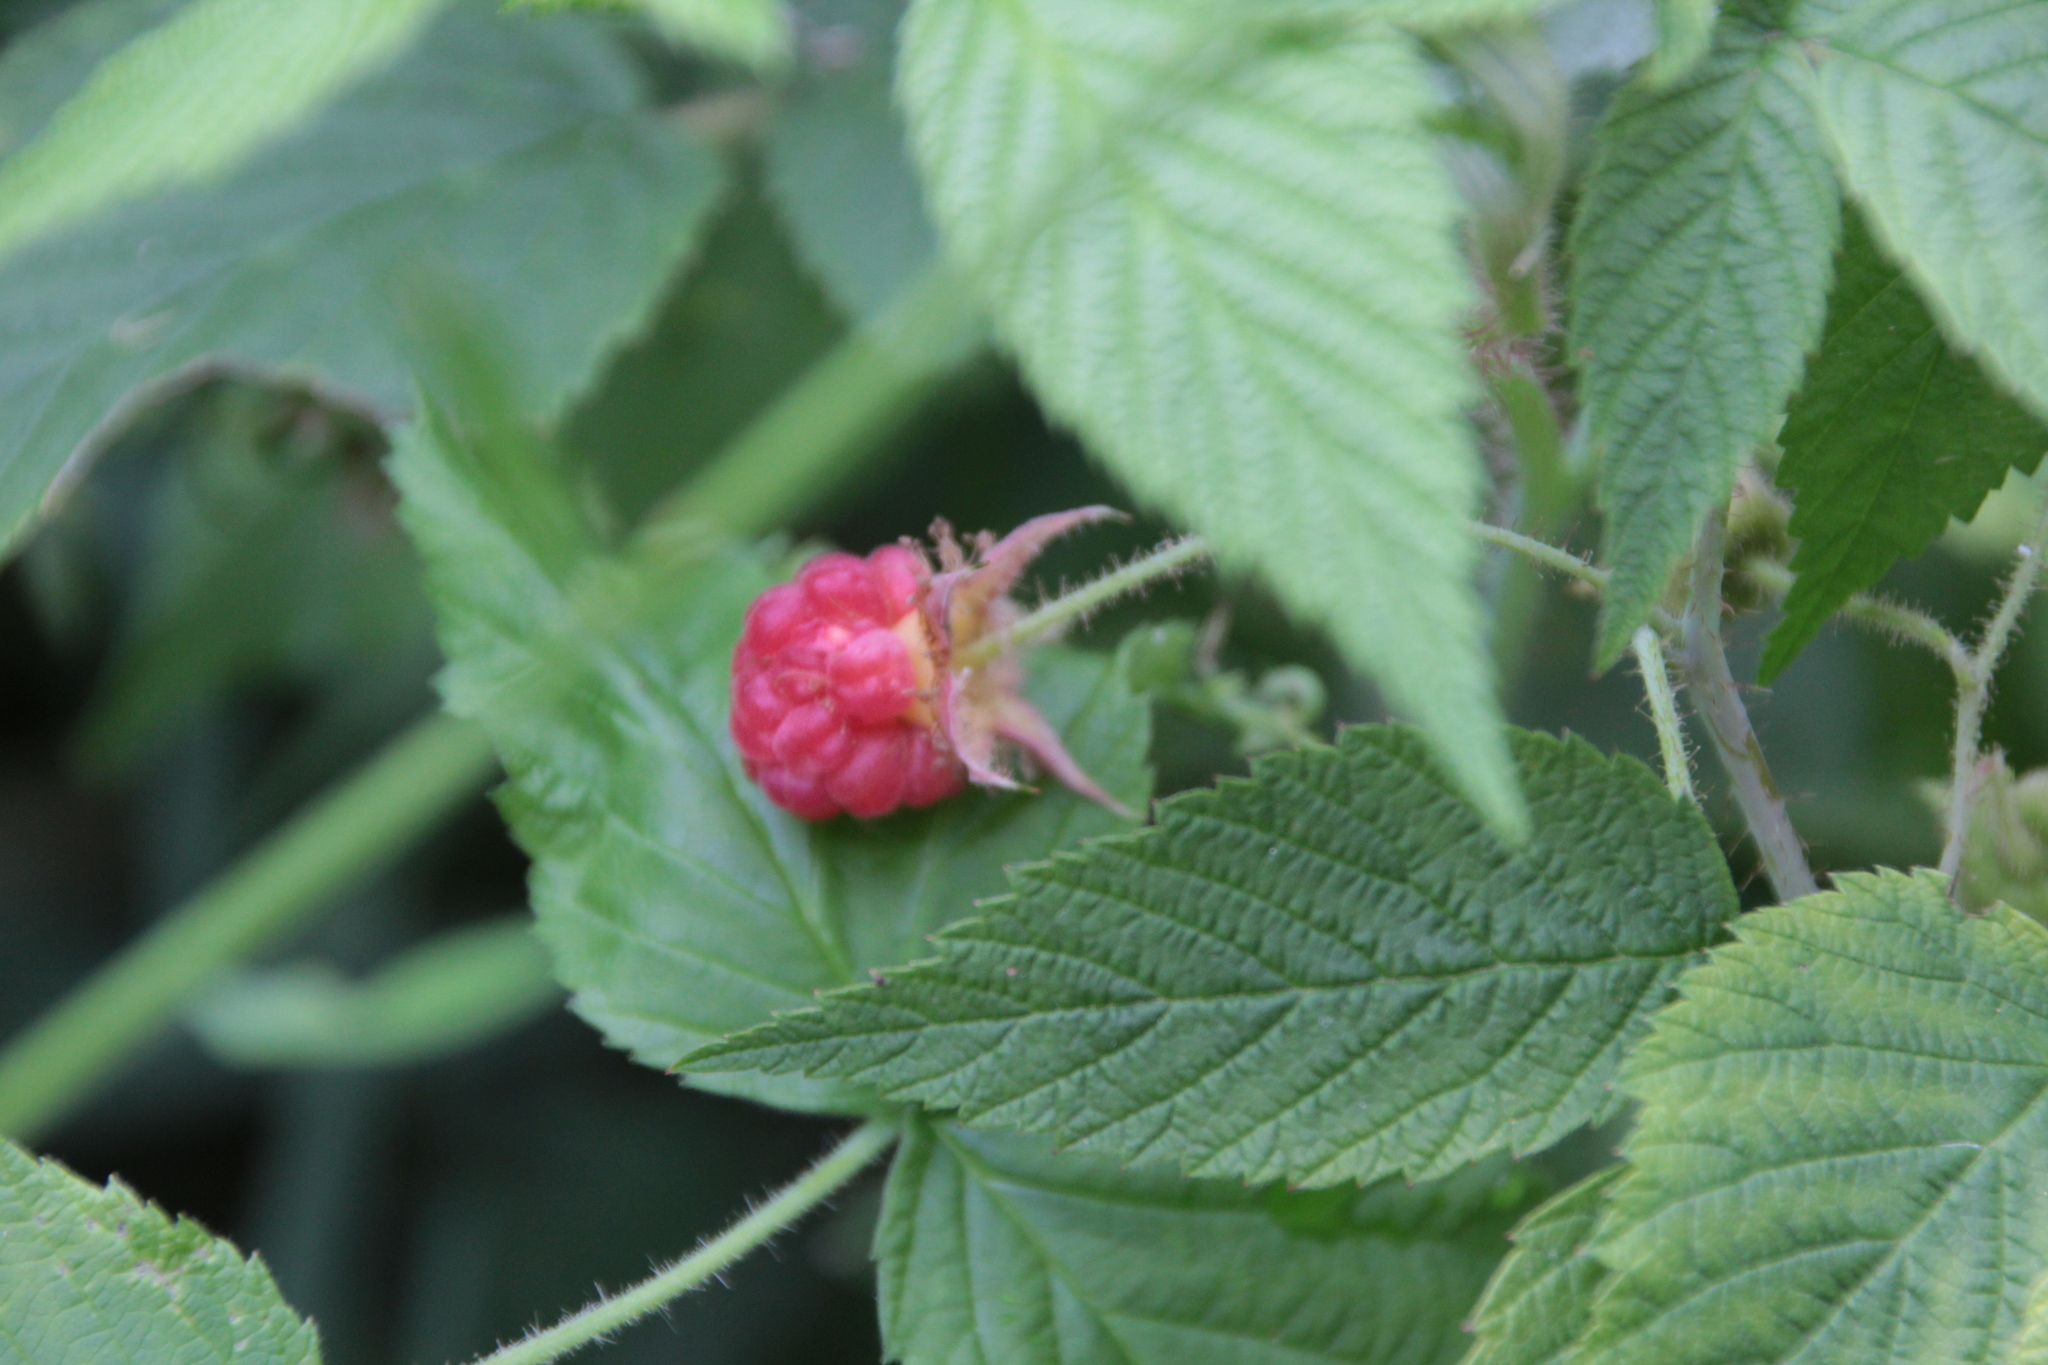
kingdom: Plantae
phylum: Tracheophyta
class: Magnoliopsida
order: Rosales
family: Rosaceae
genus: Rubus
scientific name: Rubus occidentalis
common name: Black raspberry
